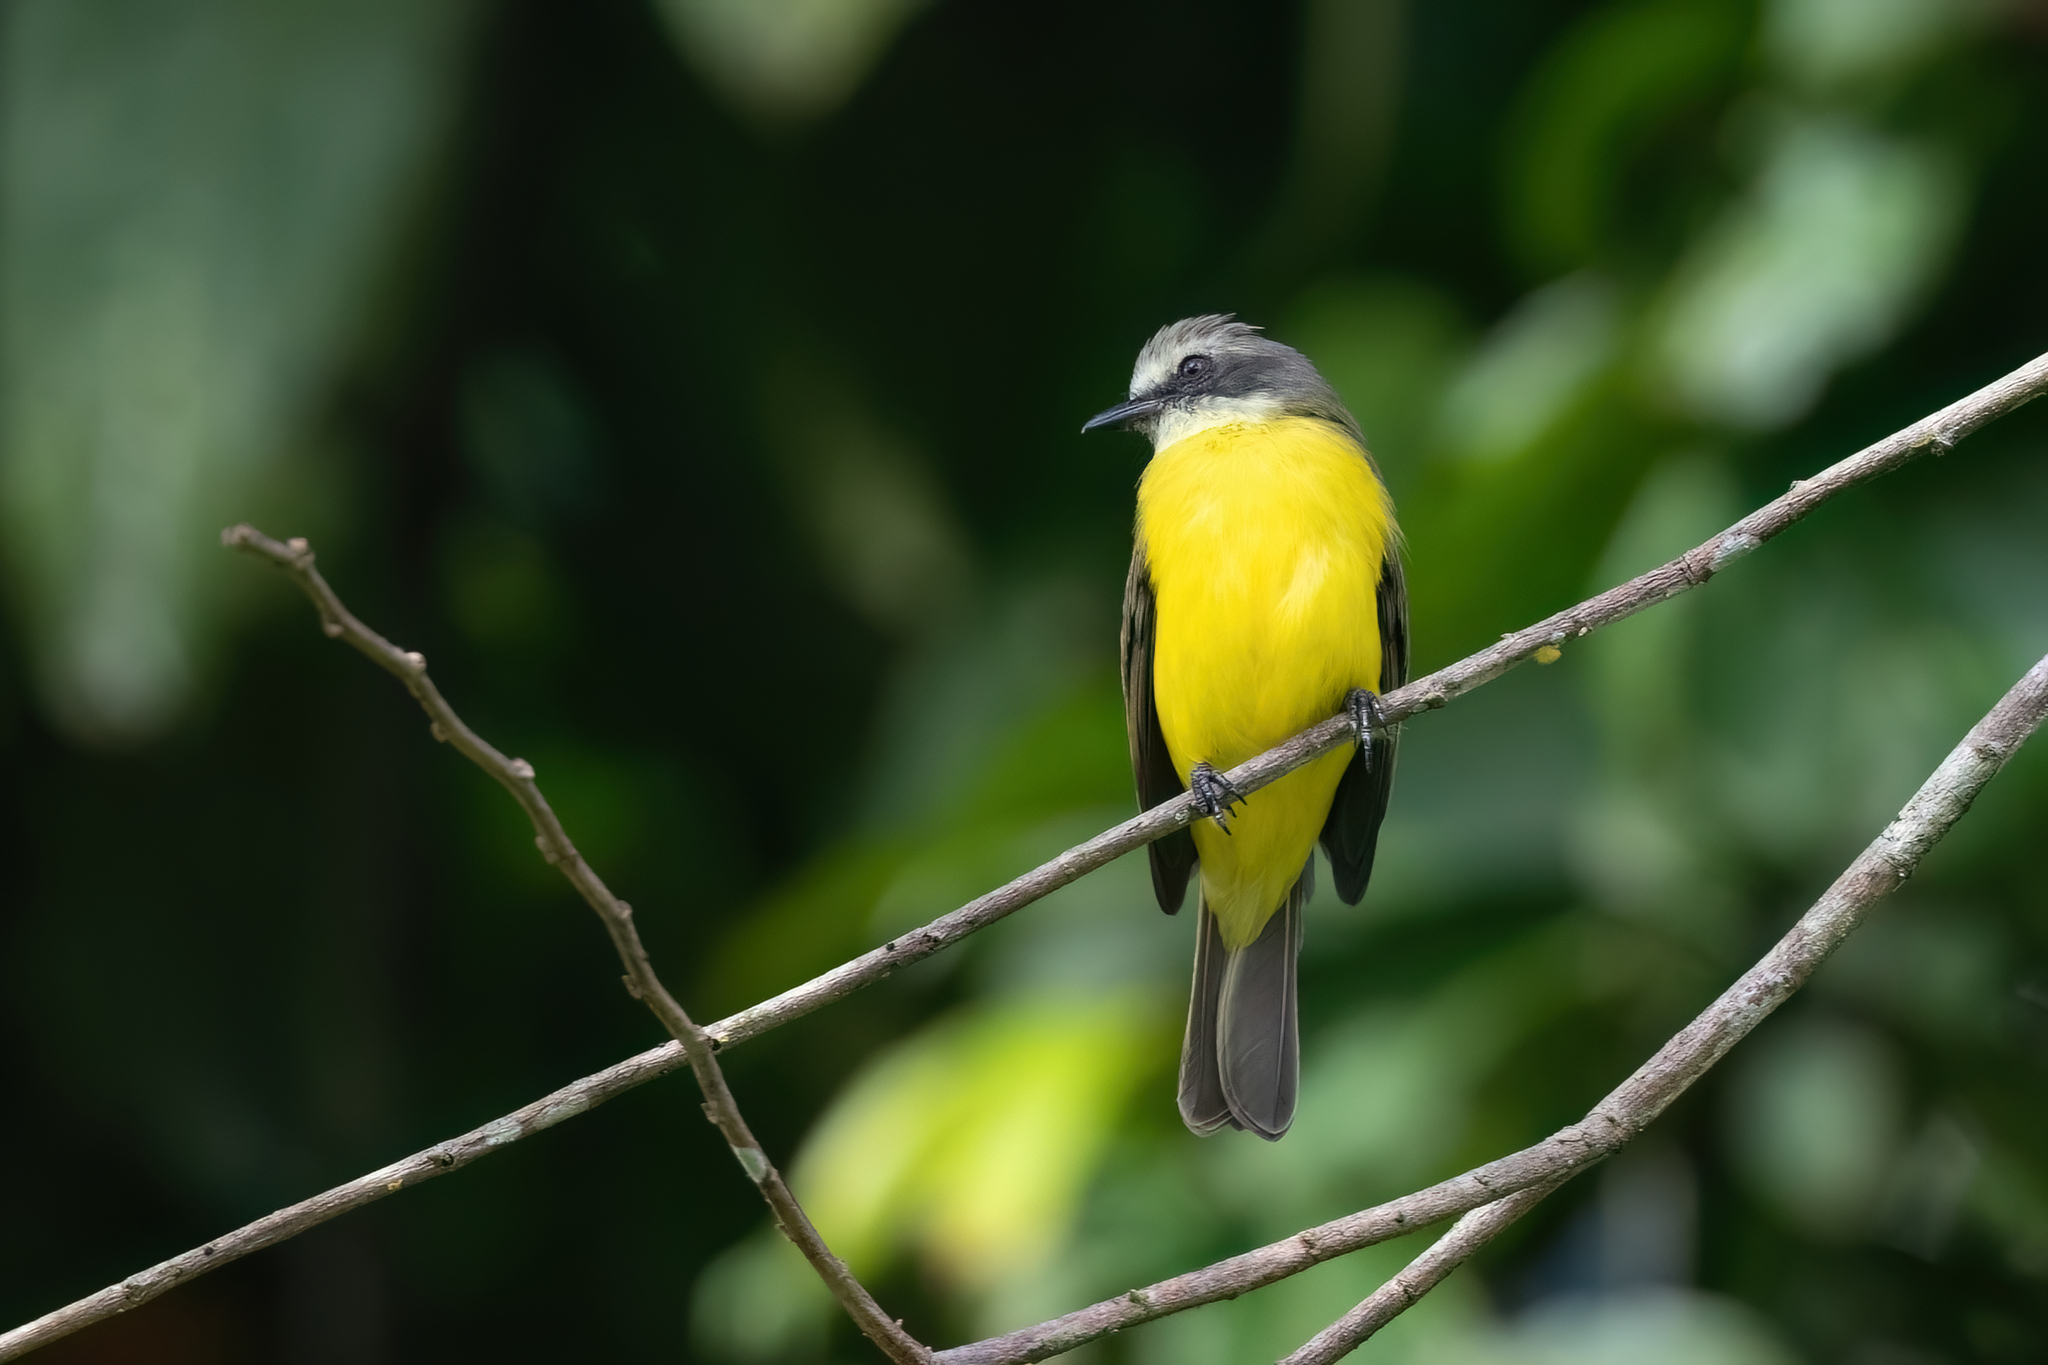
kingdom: Animalia
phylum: Chordata
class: Aves
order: Passeriformes
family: Tyrannidae
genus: Myiozetetes
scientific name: Myiozetetes granadensis
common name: Gray-capped flycatcher
